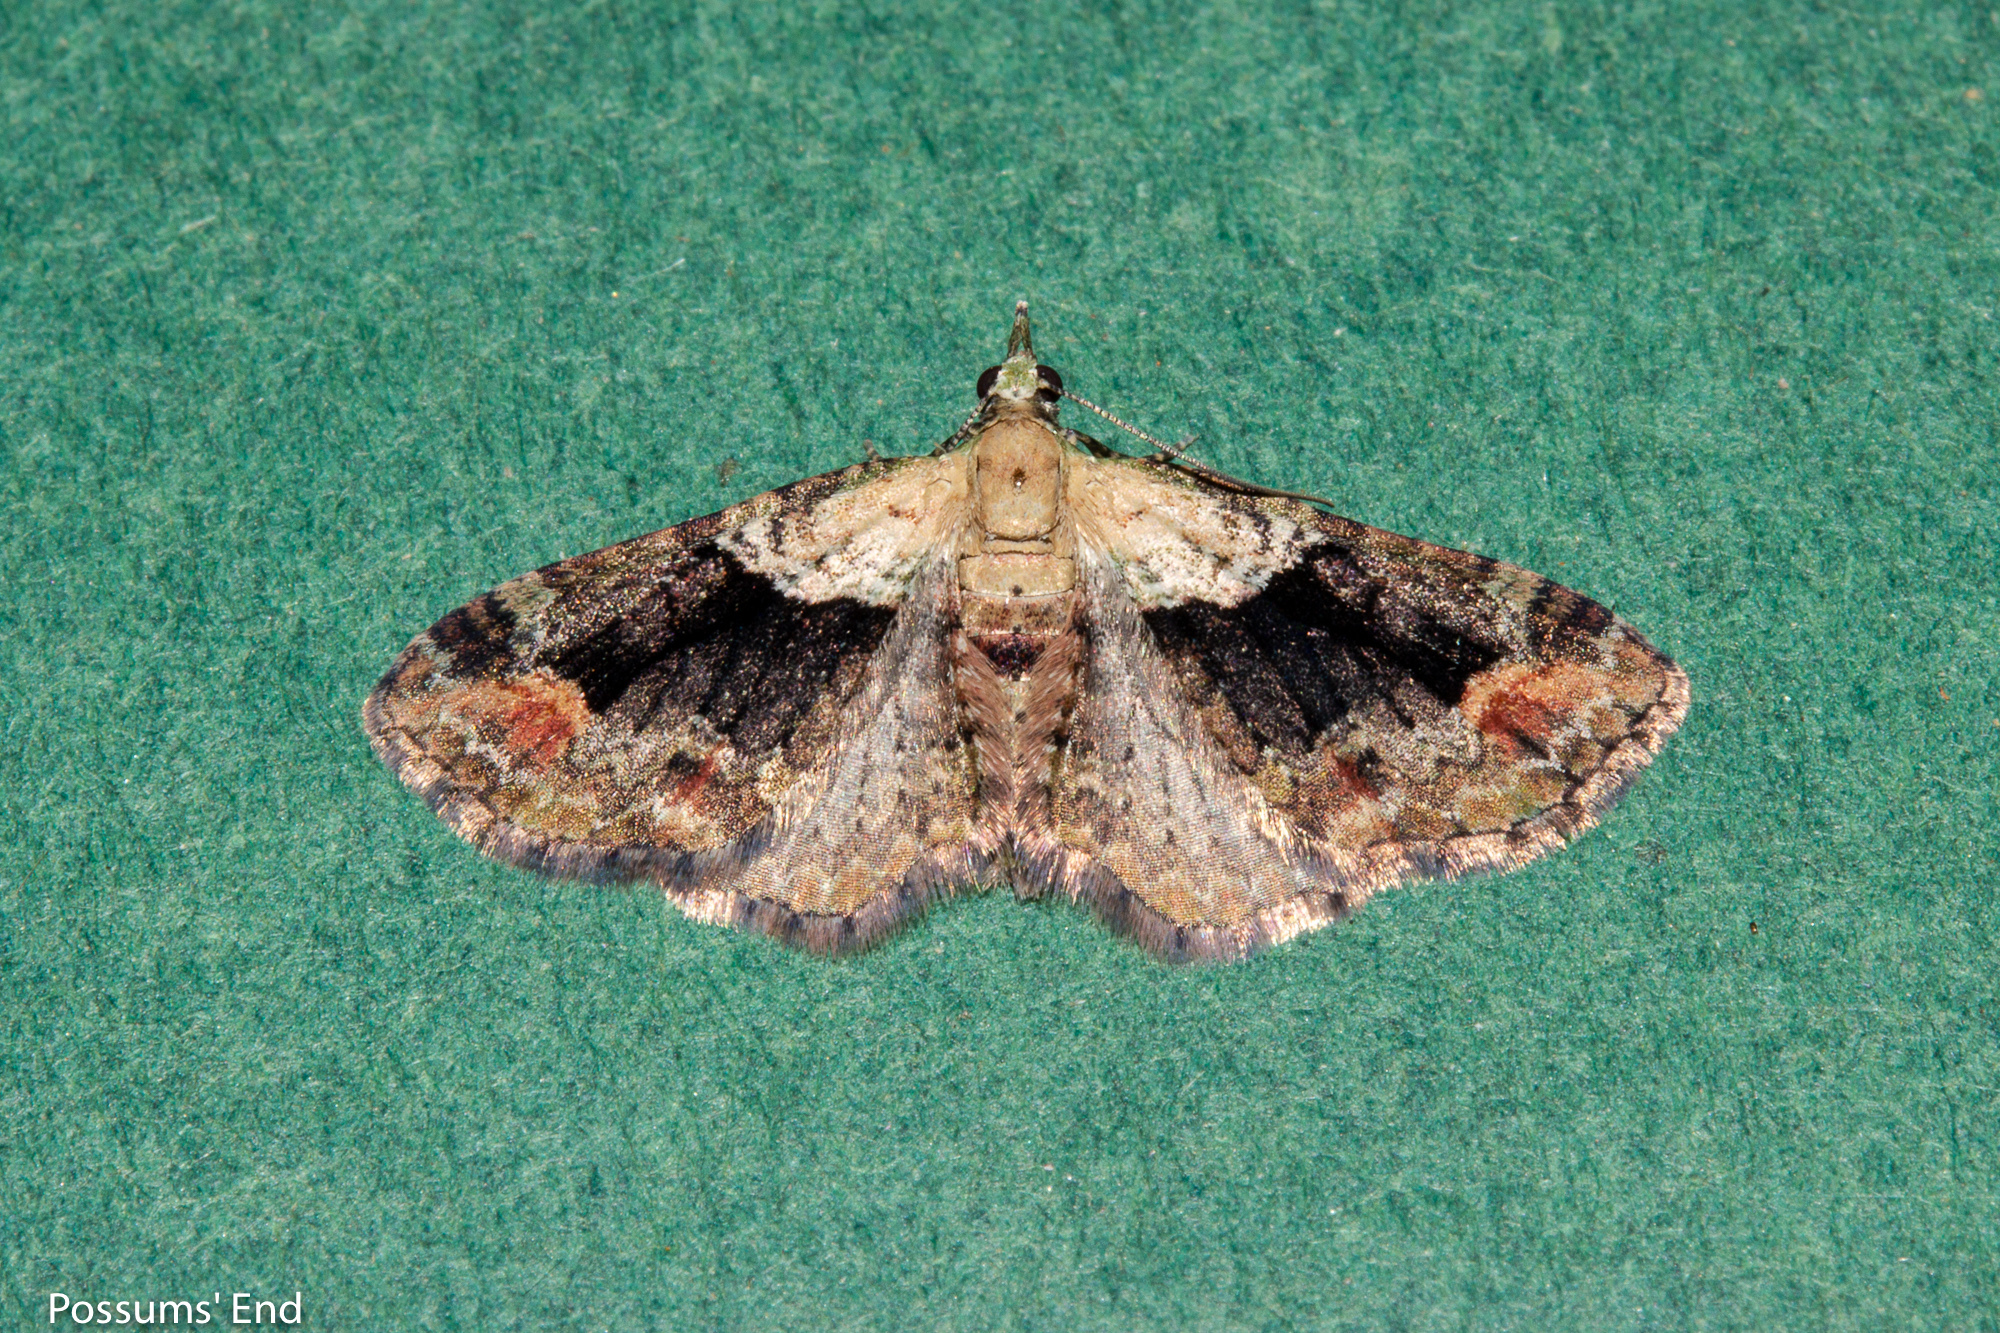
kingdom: Animalia
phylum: Arthropoda
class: Insecta
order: Lepidoptera
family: Geometridae
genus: Idaea
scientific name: Idaea mutanda
